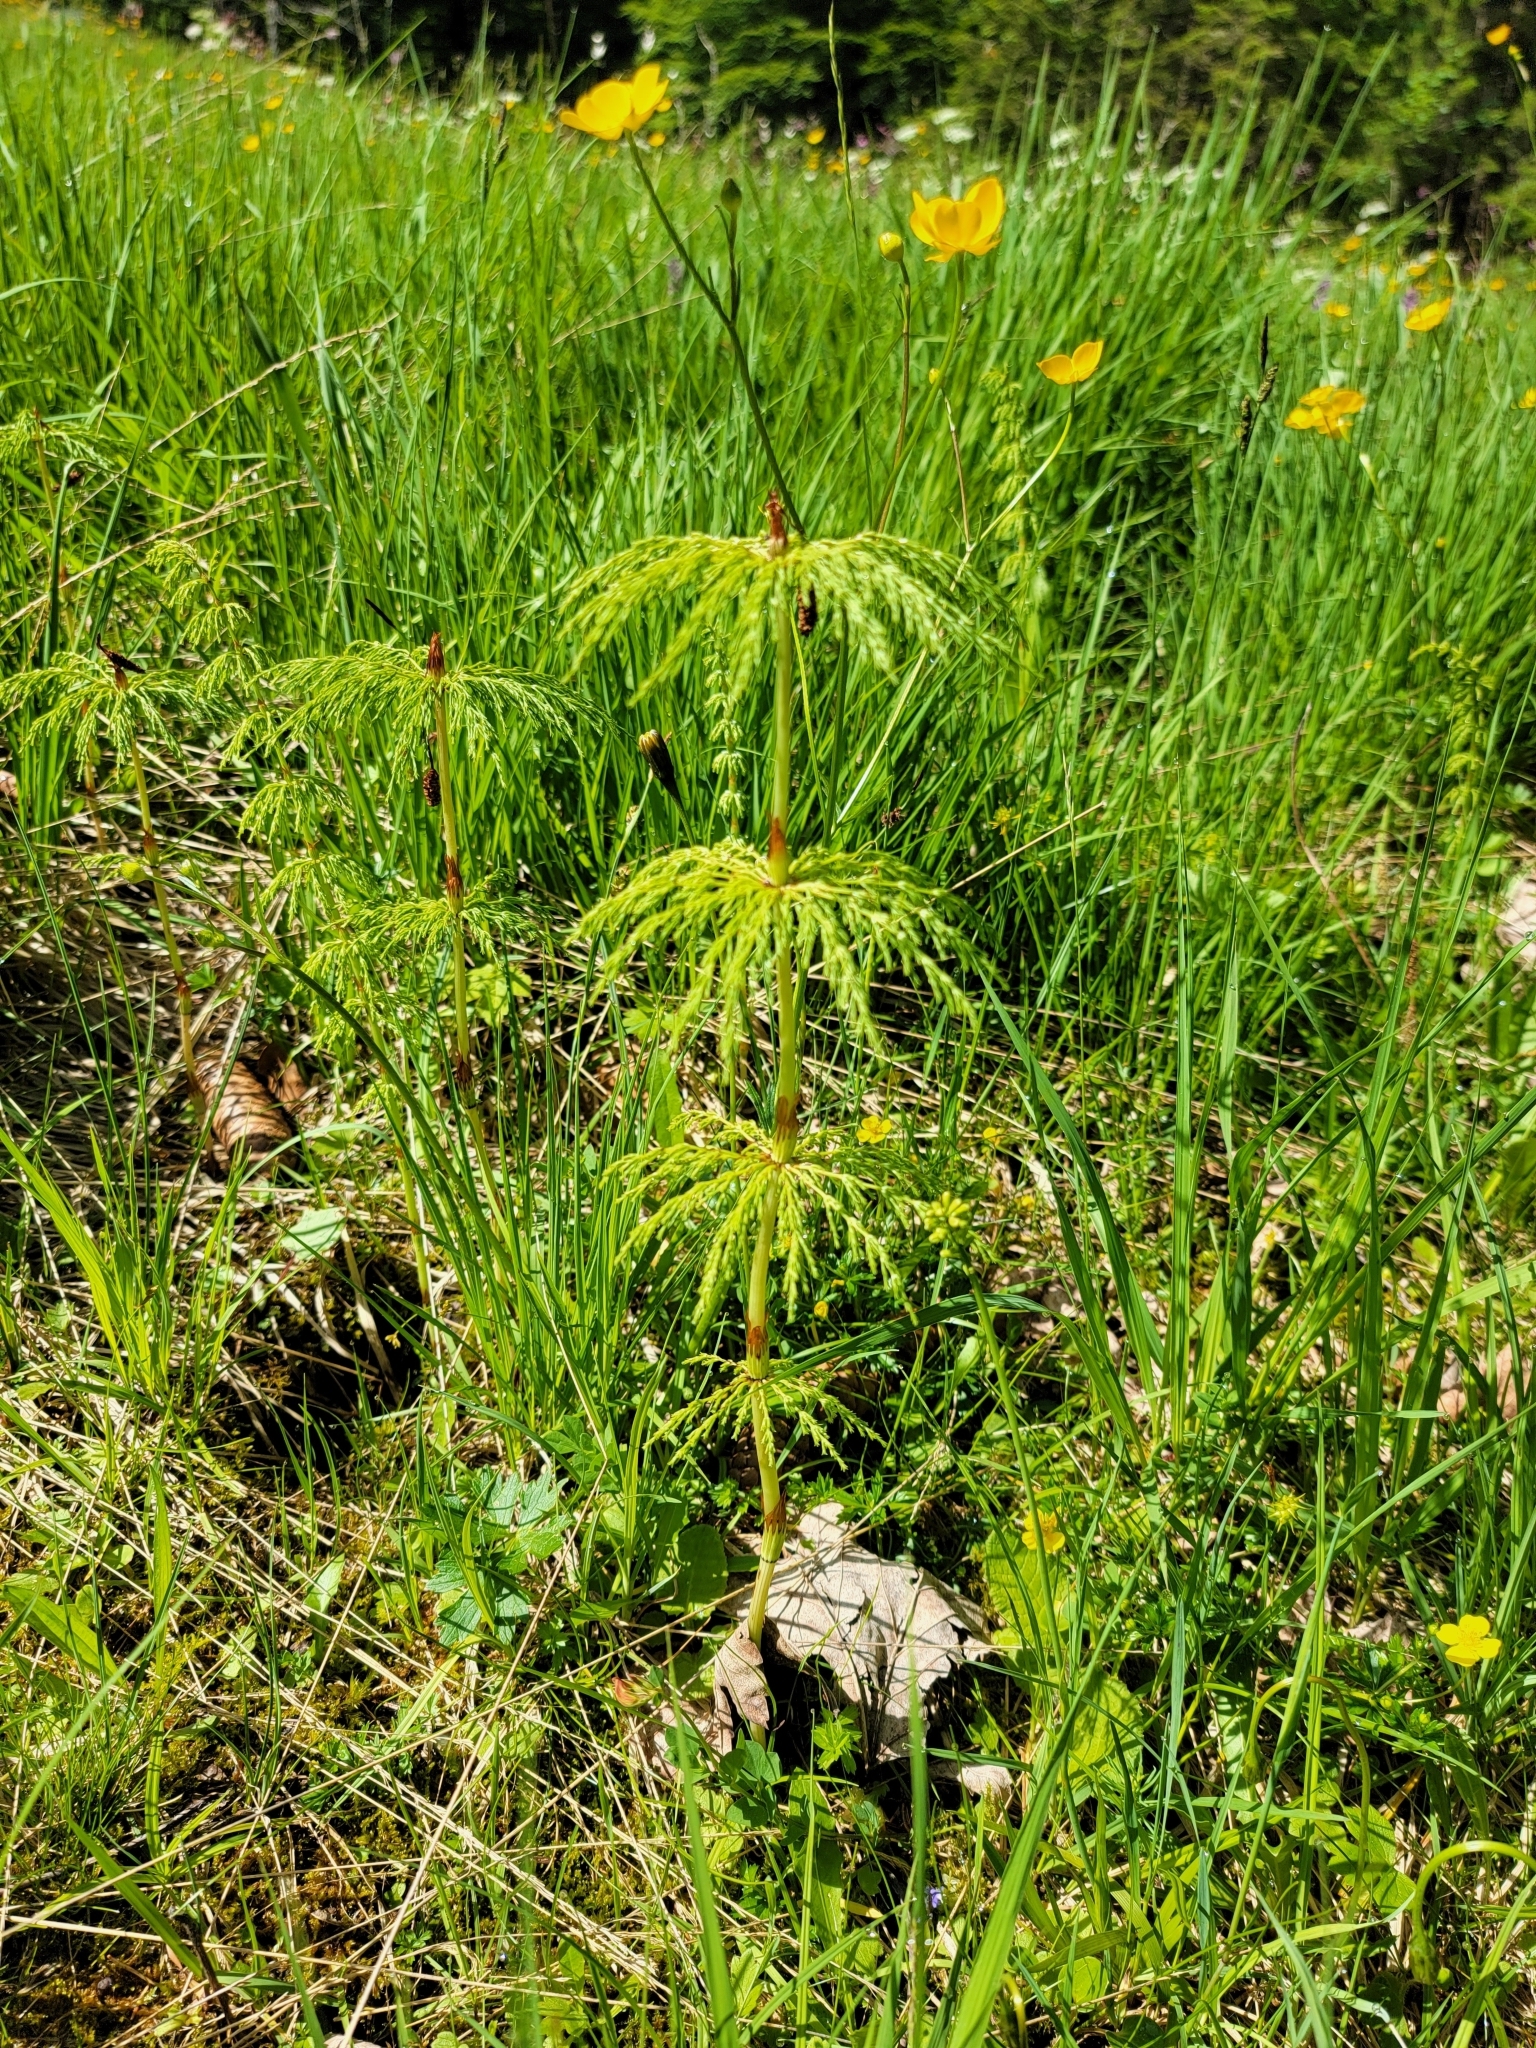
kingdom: Plantae
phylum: Tracheophyta
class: Polypodiopsida
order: Equisetales
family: Equisetaceae
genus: Equisetum
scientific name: Equisetum sylvaticum
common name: Wood horsetail
